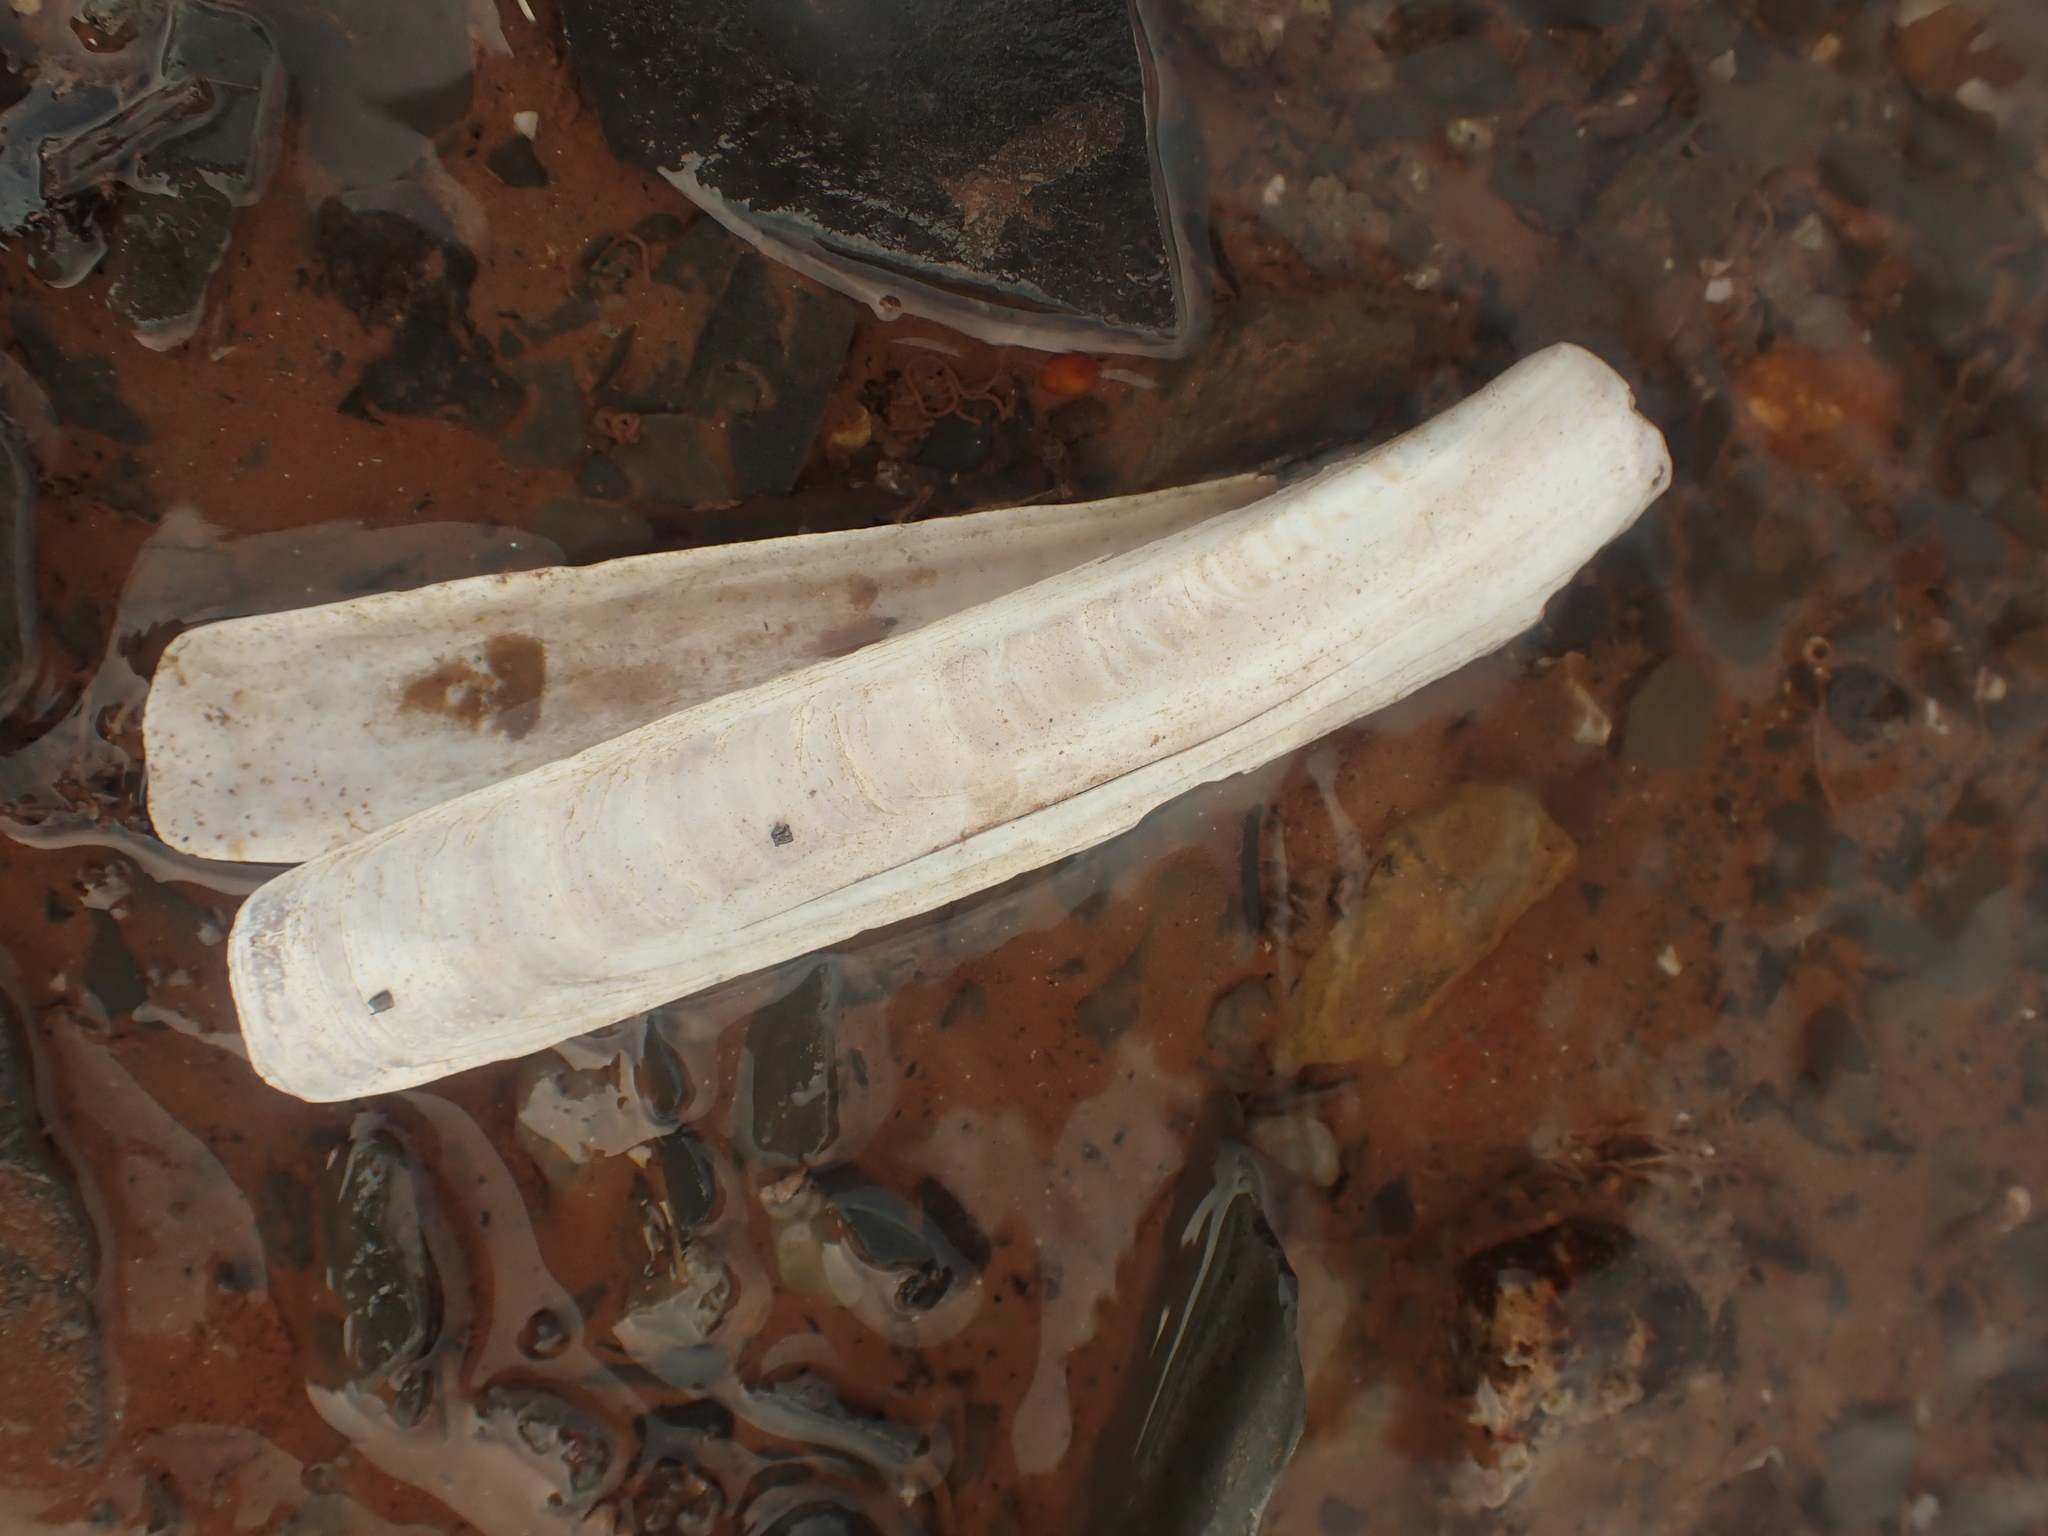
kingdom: Animalia
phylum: Mollusca
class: Bivalvia
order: Adapedonta
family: Pharidae
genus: Ensis
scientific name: Ensis leei
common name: American jack knife clam
